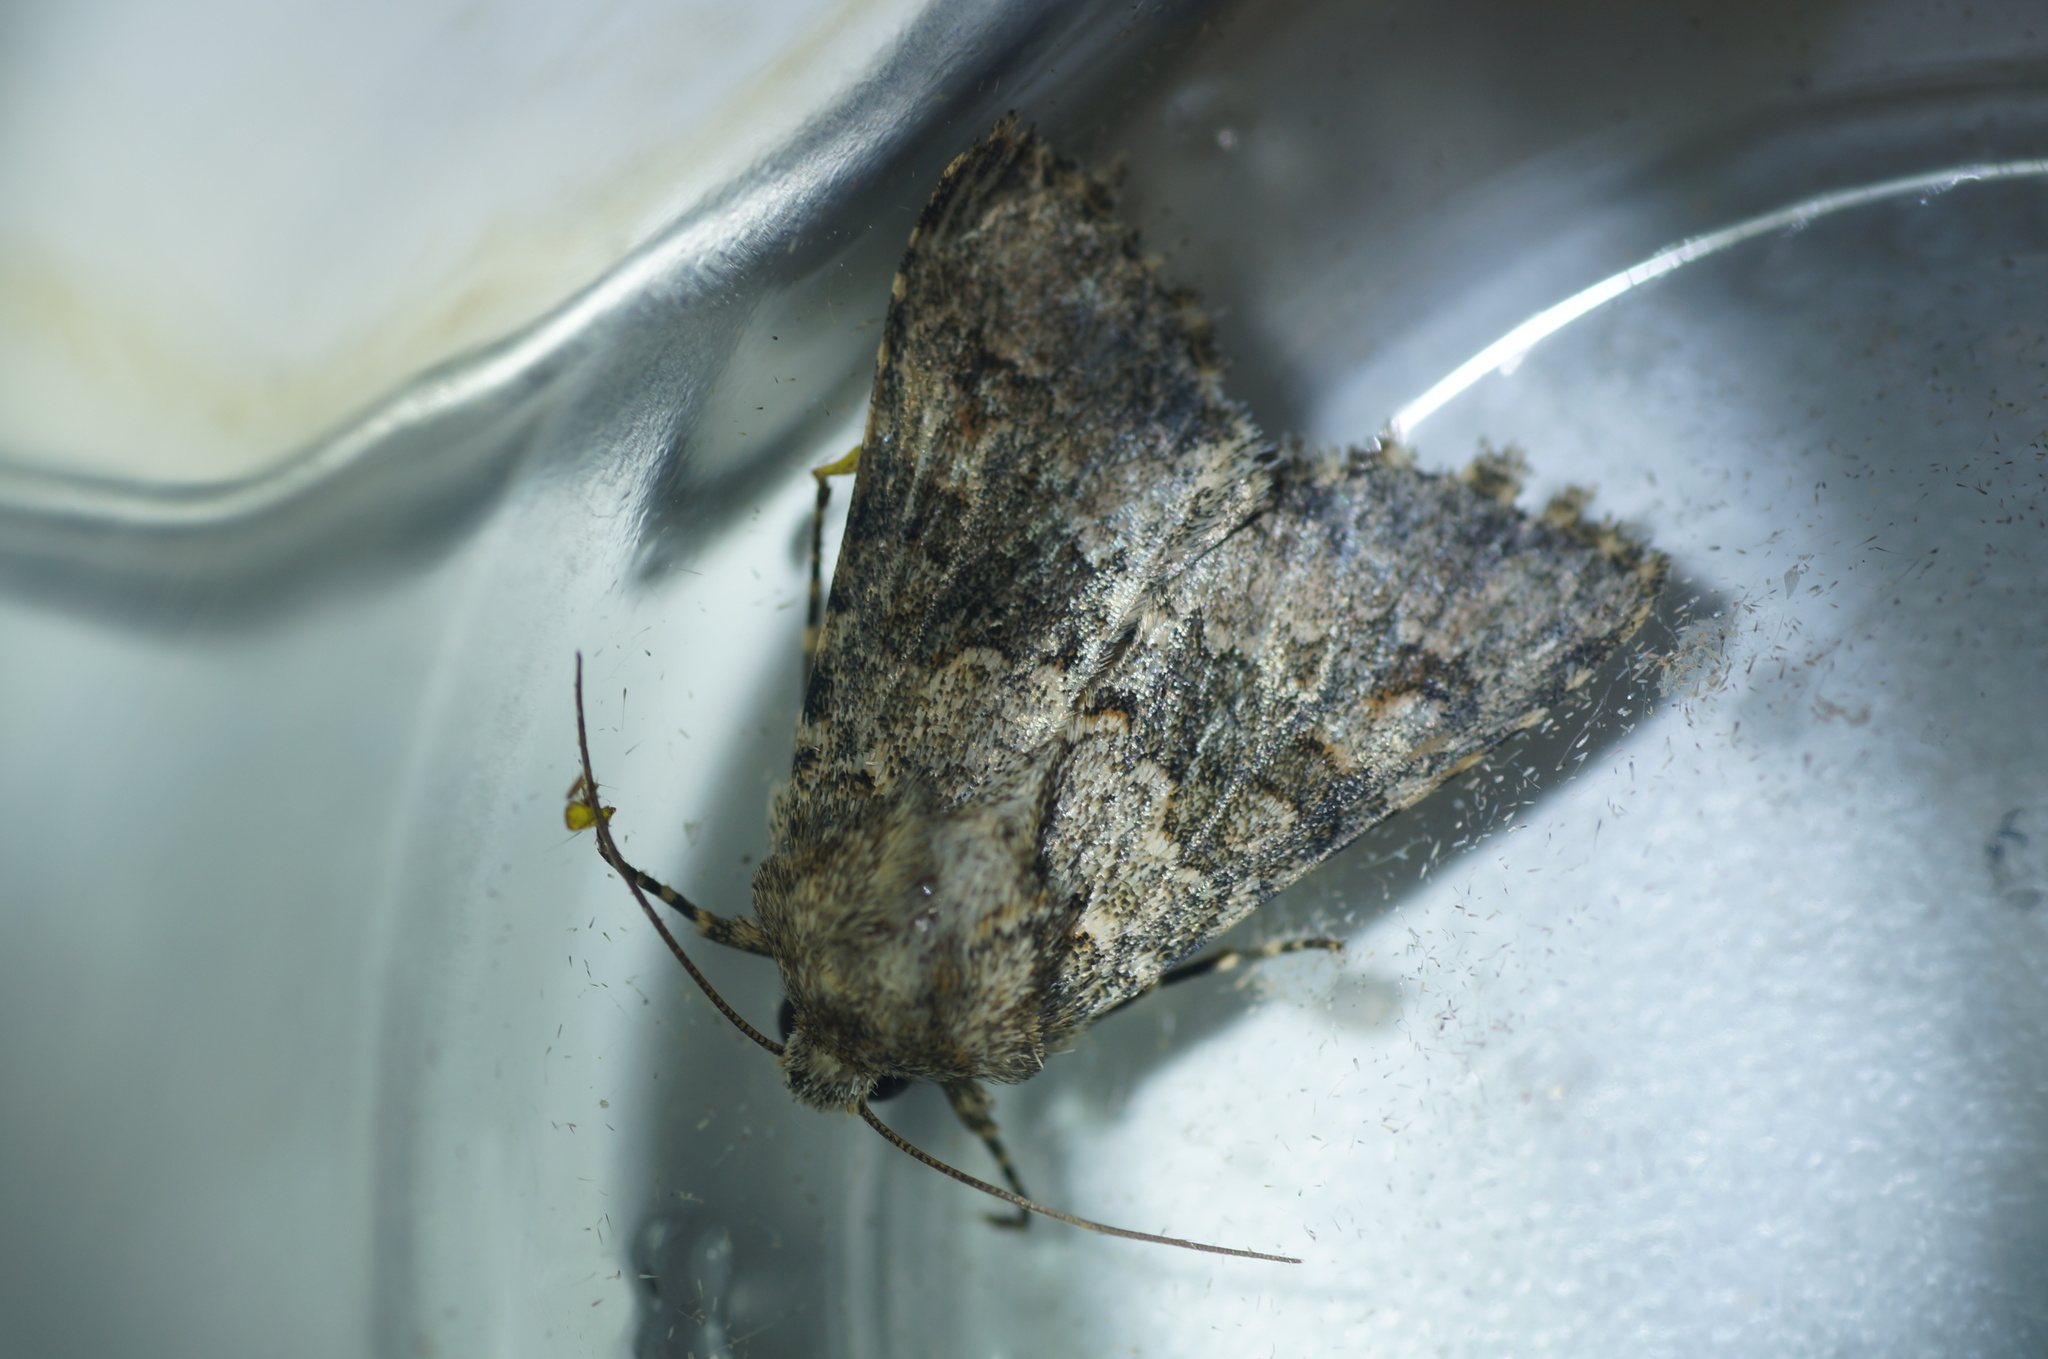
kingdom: Animalia
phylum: Arthropoda
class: Insecta
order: Lepidoptera
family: Noctuidae
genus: Hecatera
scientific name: Hecatera dysodea
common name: Small ranunculus
